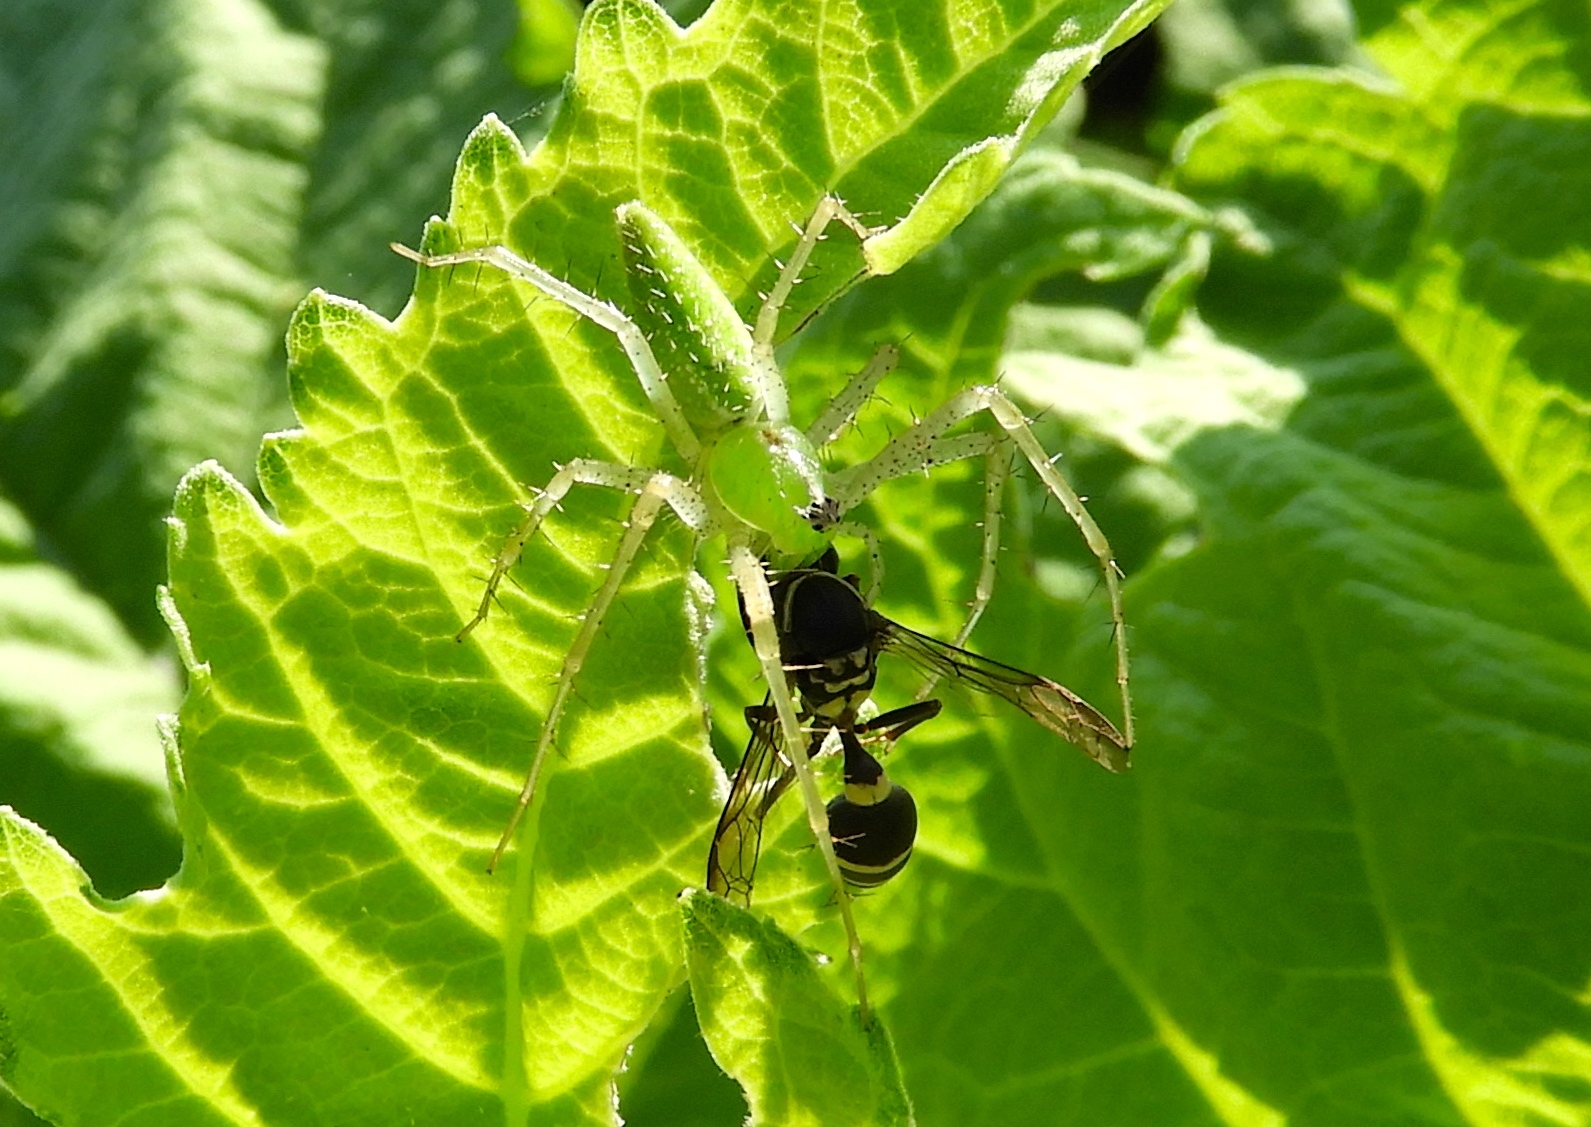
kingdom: Animalia
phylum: Arthropoda
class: Insecta
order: Hymenoptera
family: Eumenidae
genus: Polybia
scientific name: Polybia occidentalis
